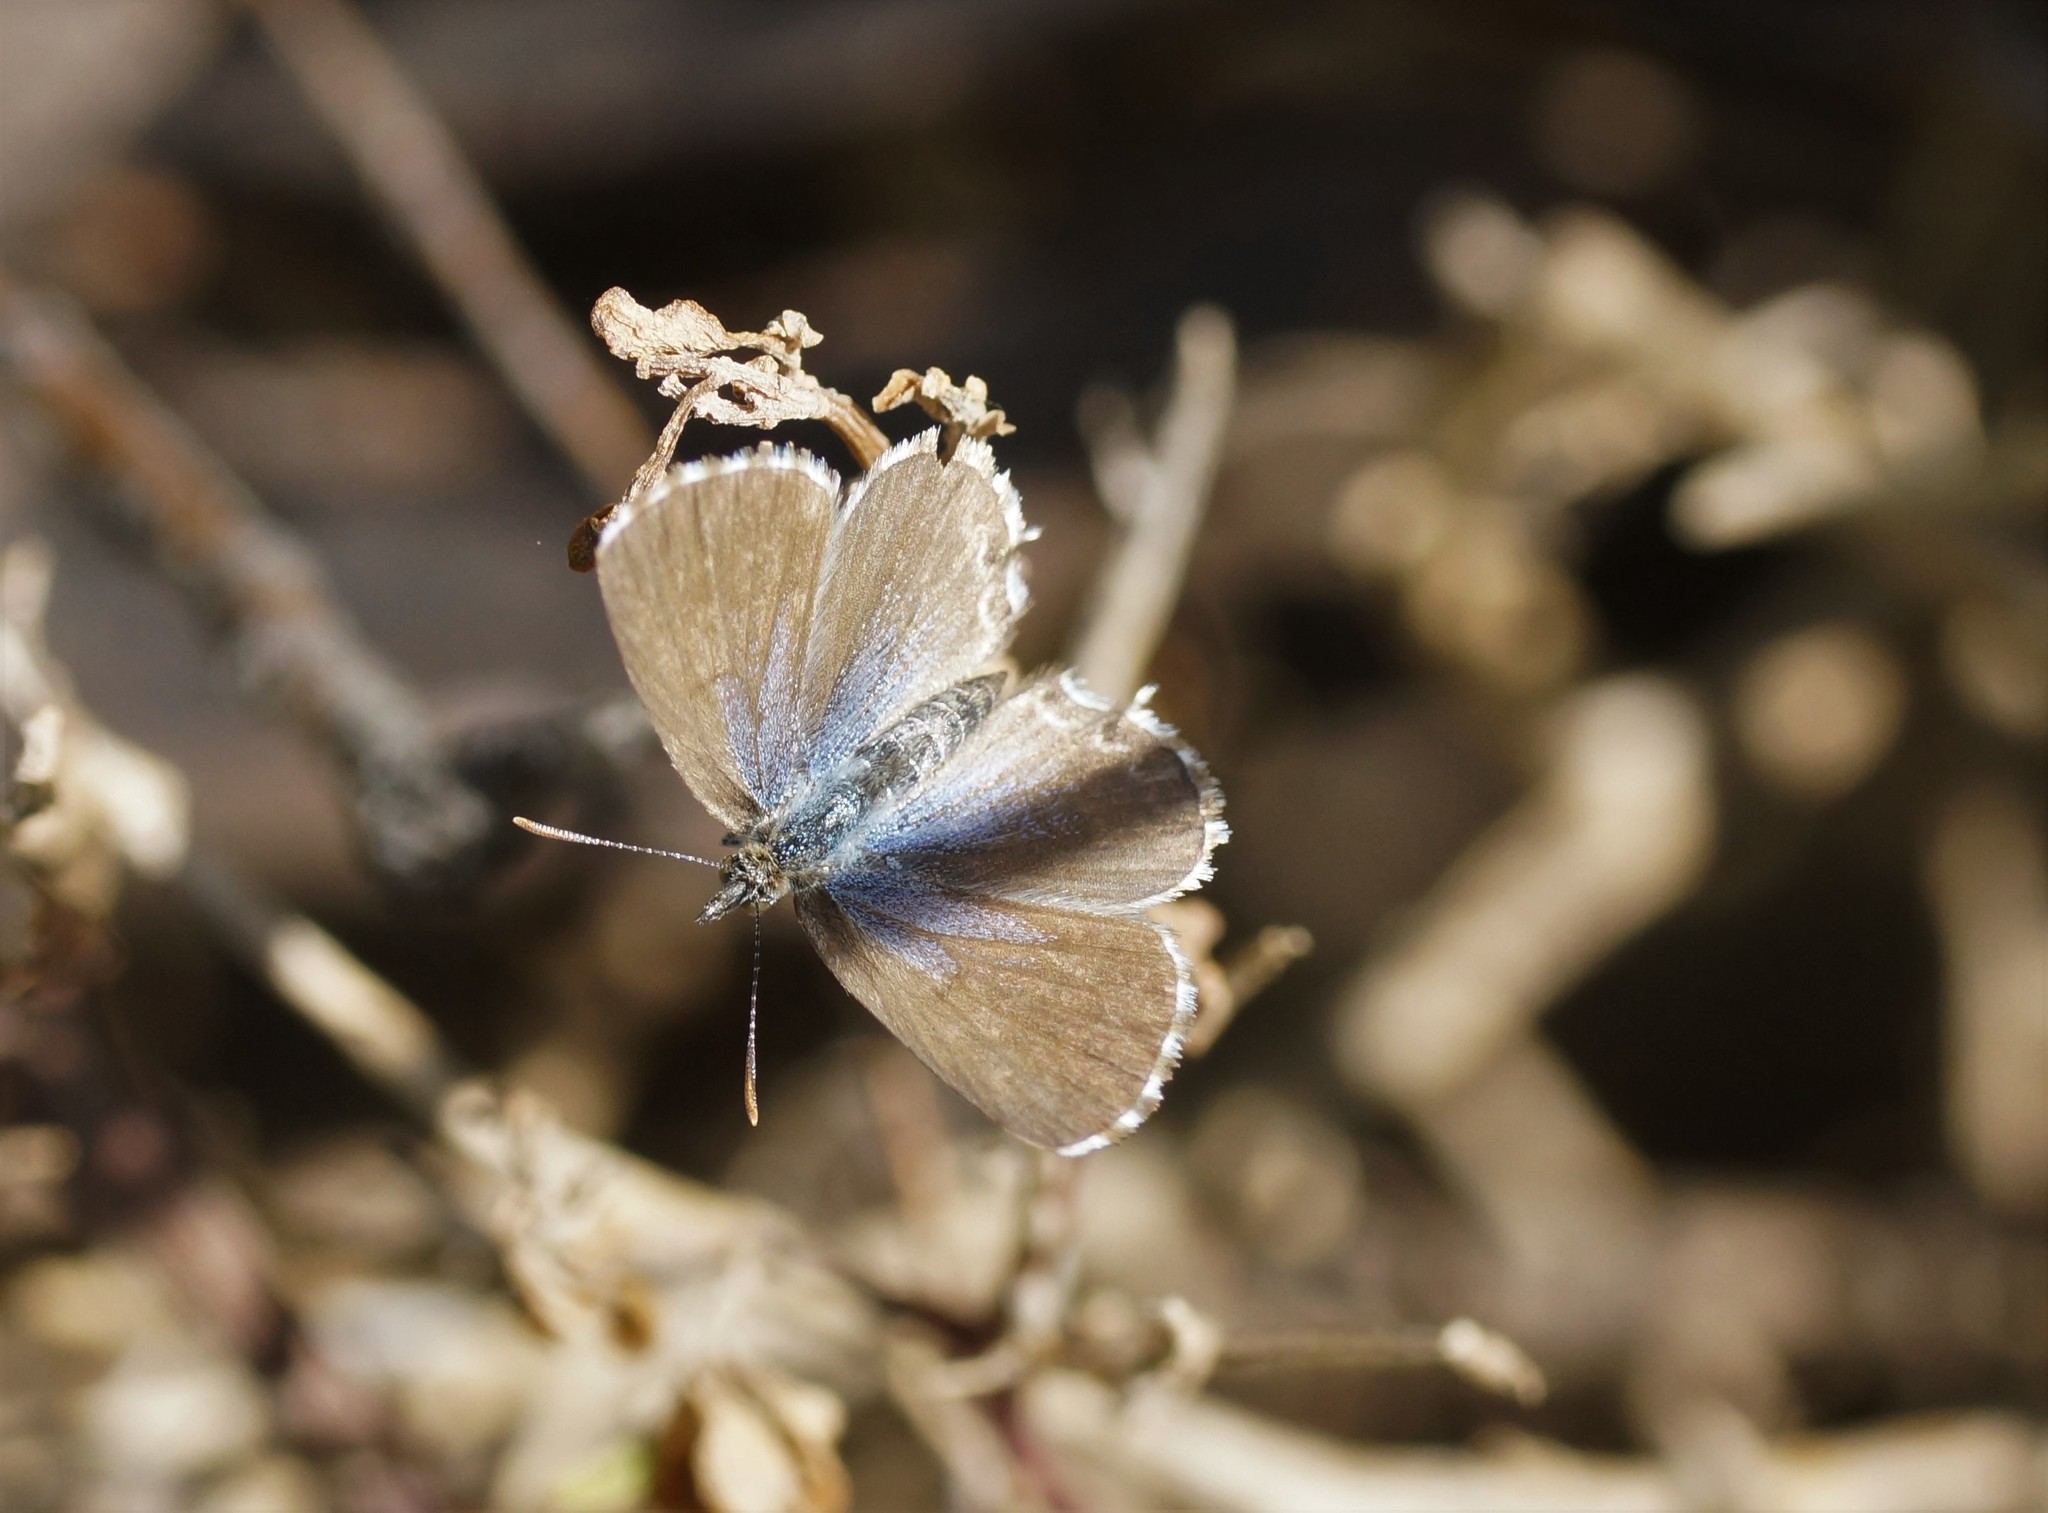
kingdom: Animalia
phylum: Arthropoda
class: Insecta
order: Lepidoptera
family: Lycaenidae
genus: Theclinesthes
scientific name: Theclinesthes serpentata
